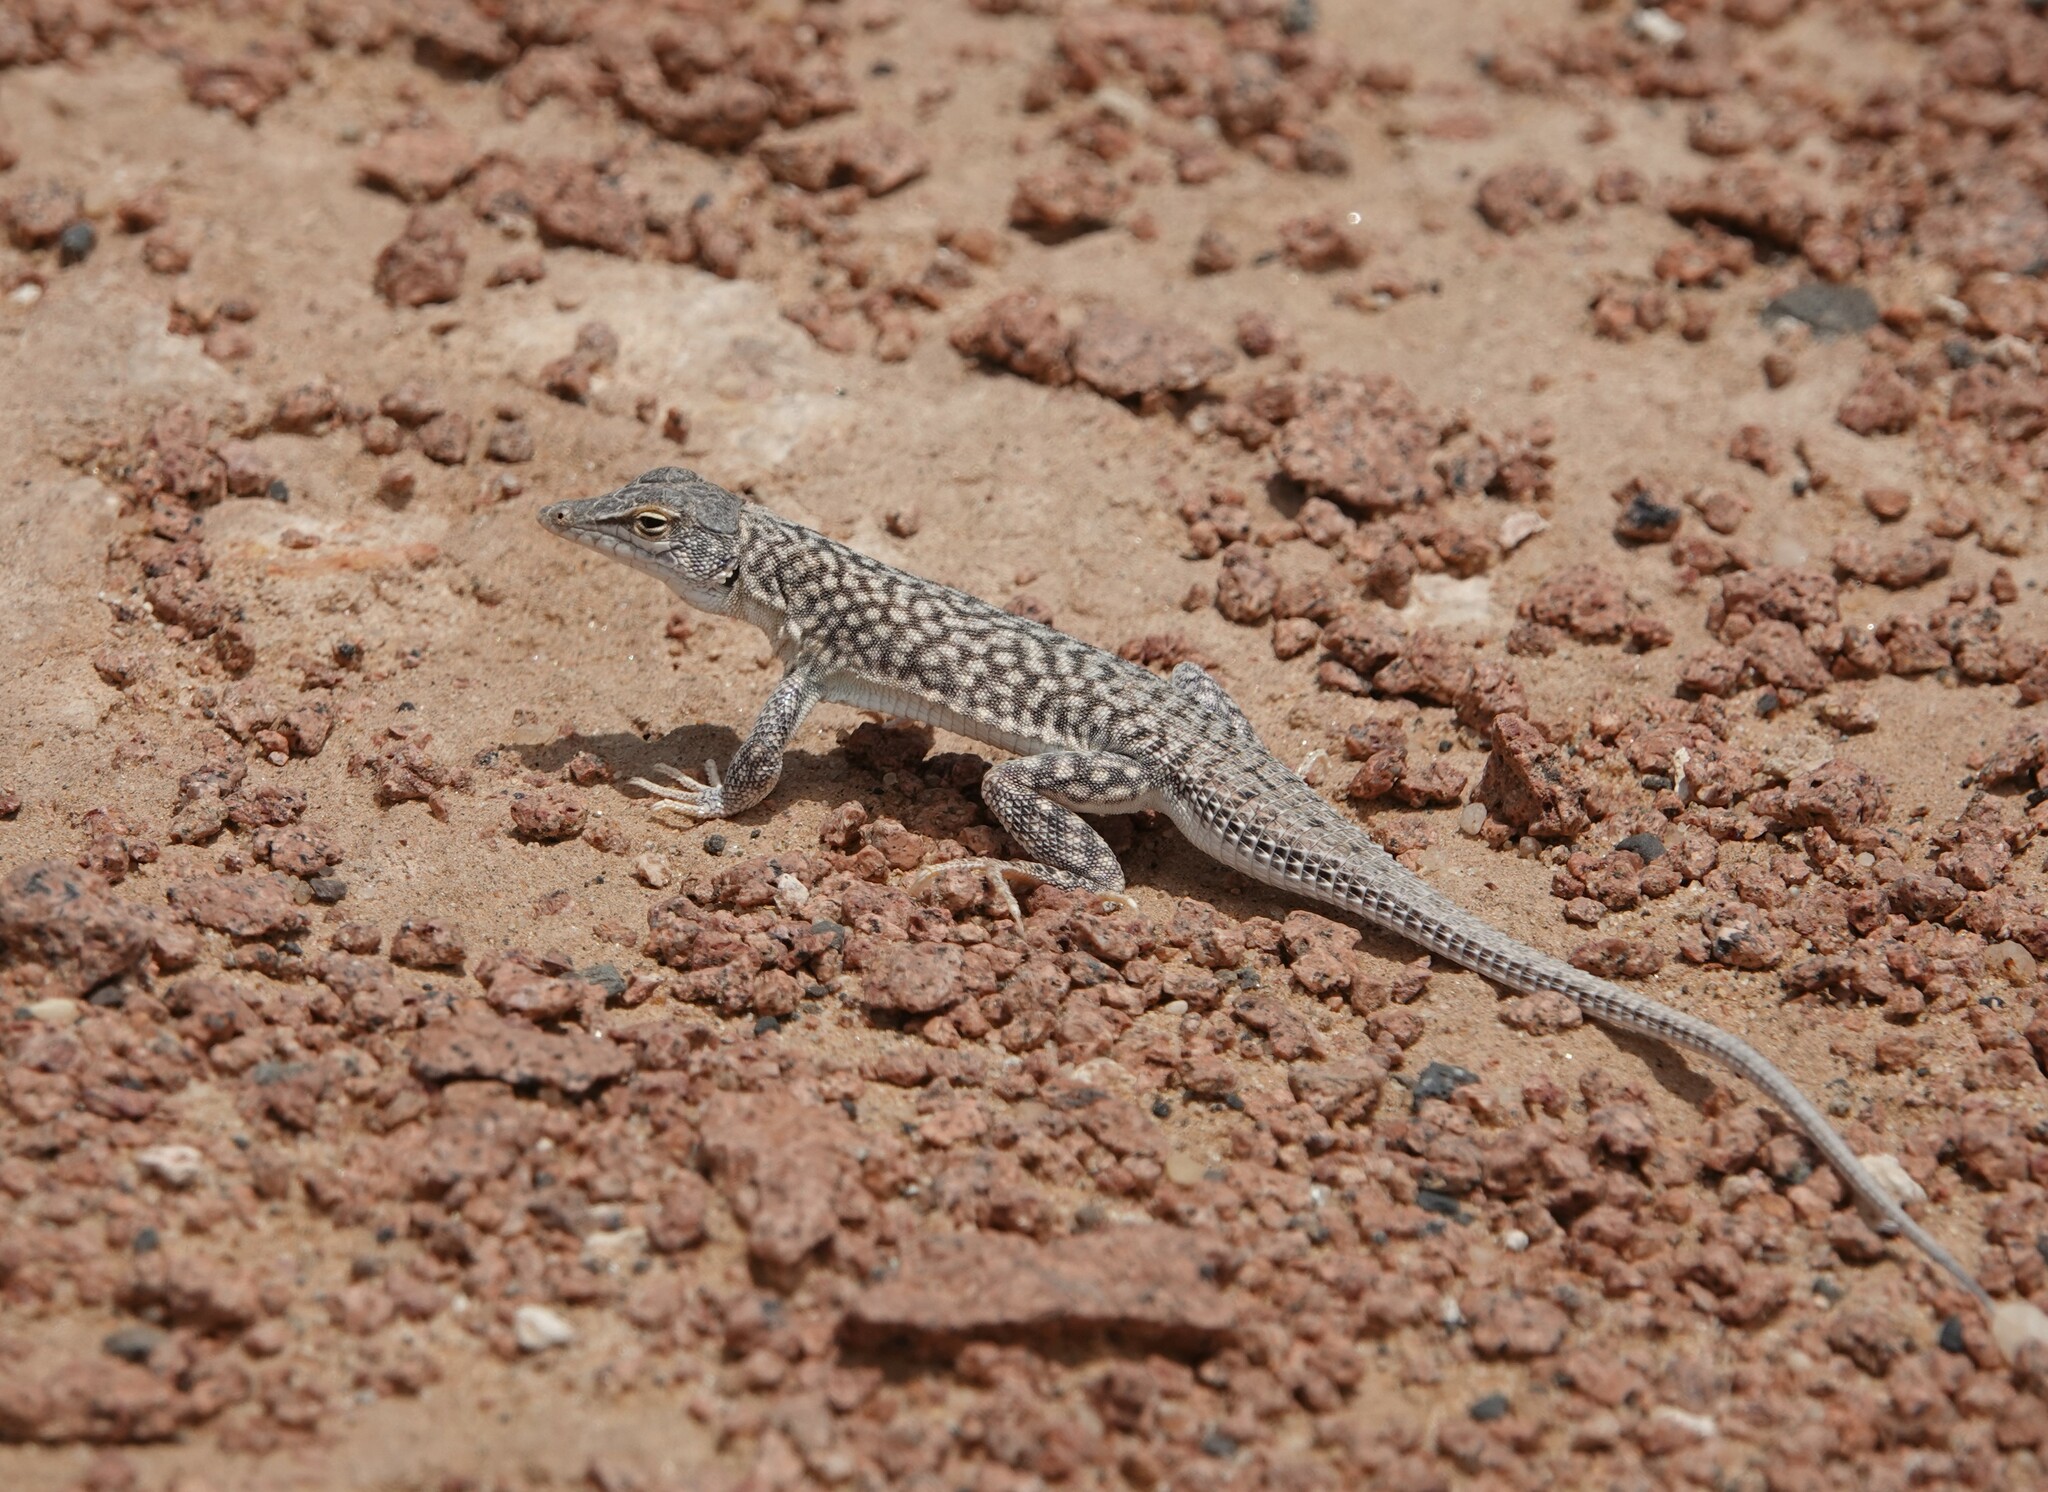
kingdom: Animalia
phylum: Chordata
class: Squamata
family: Lacertidae
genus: Meroles
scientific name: Meroles reticulatus
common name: Reticulate sand lizard
